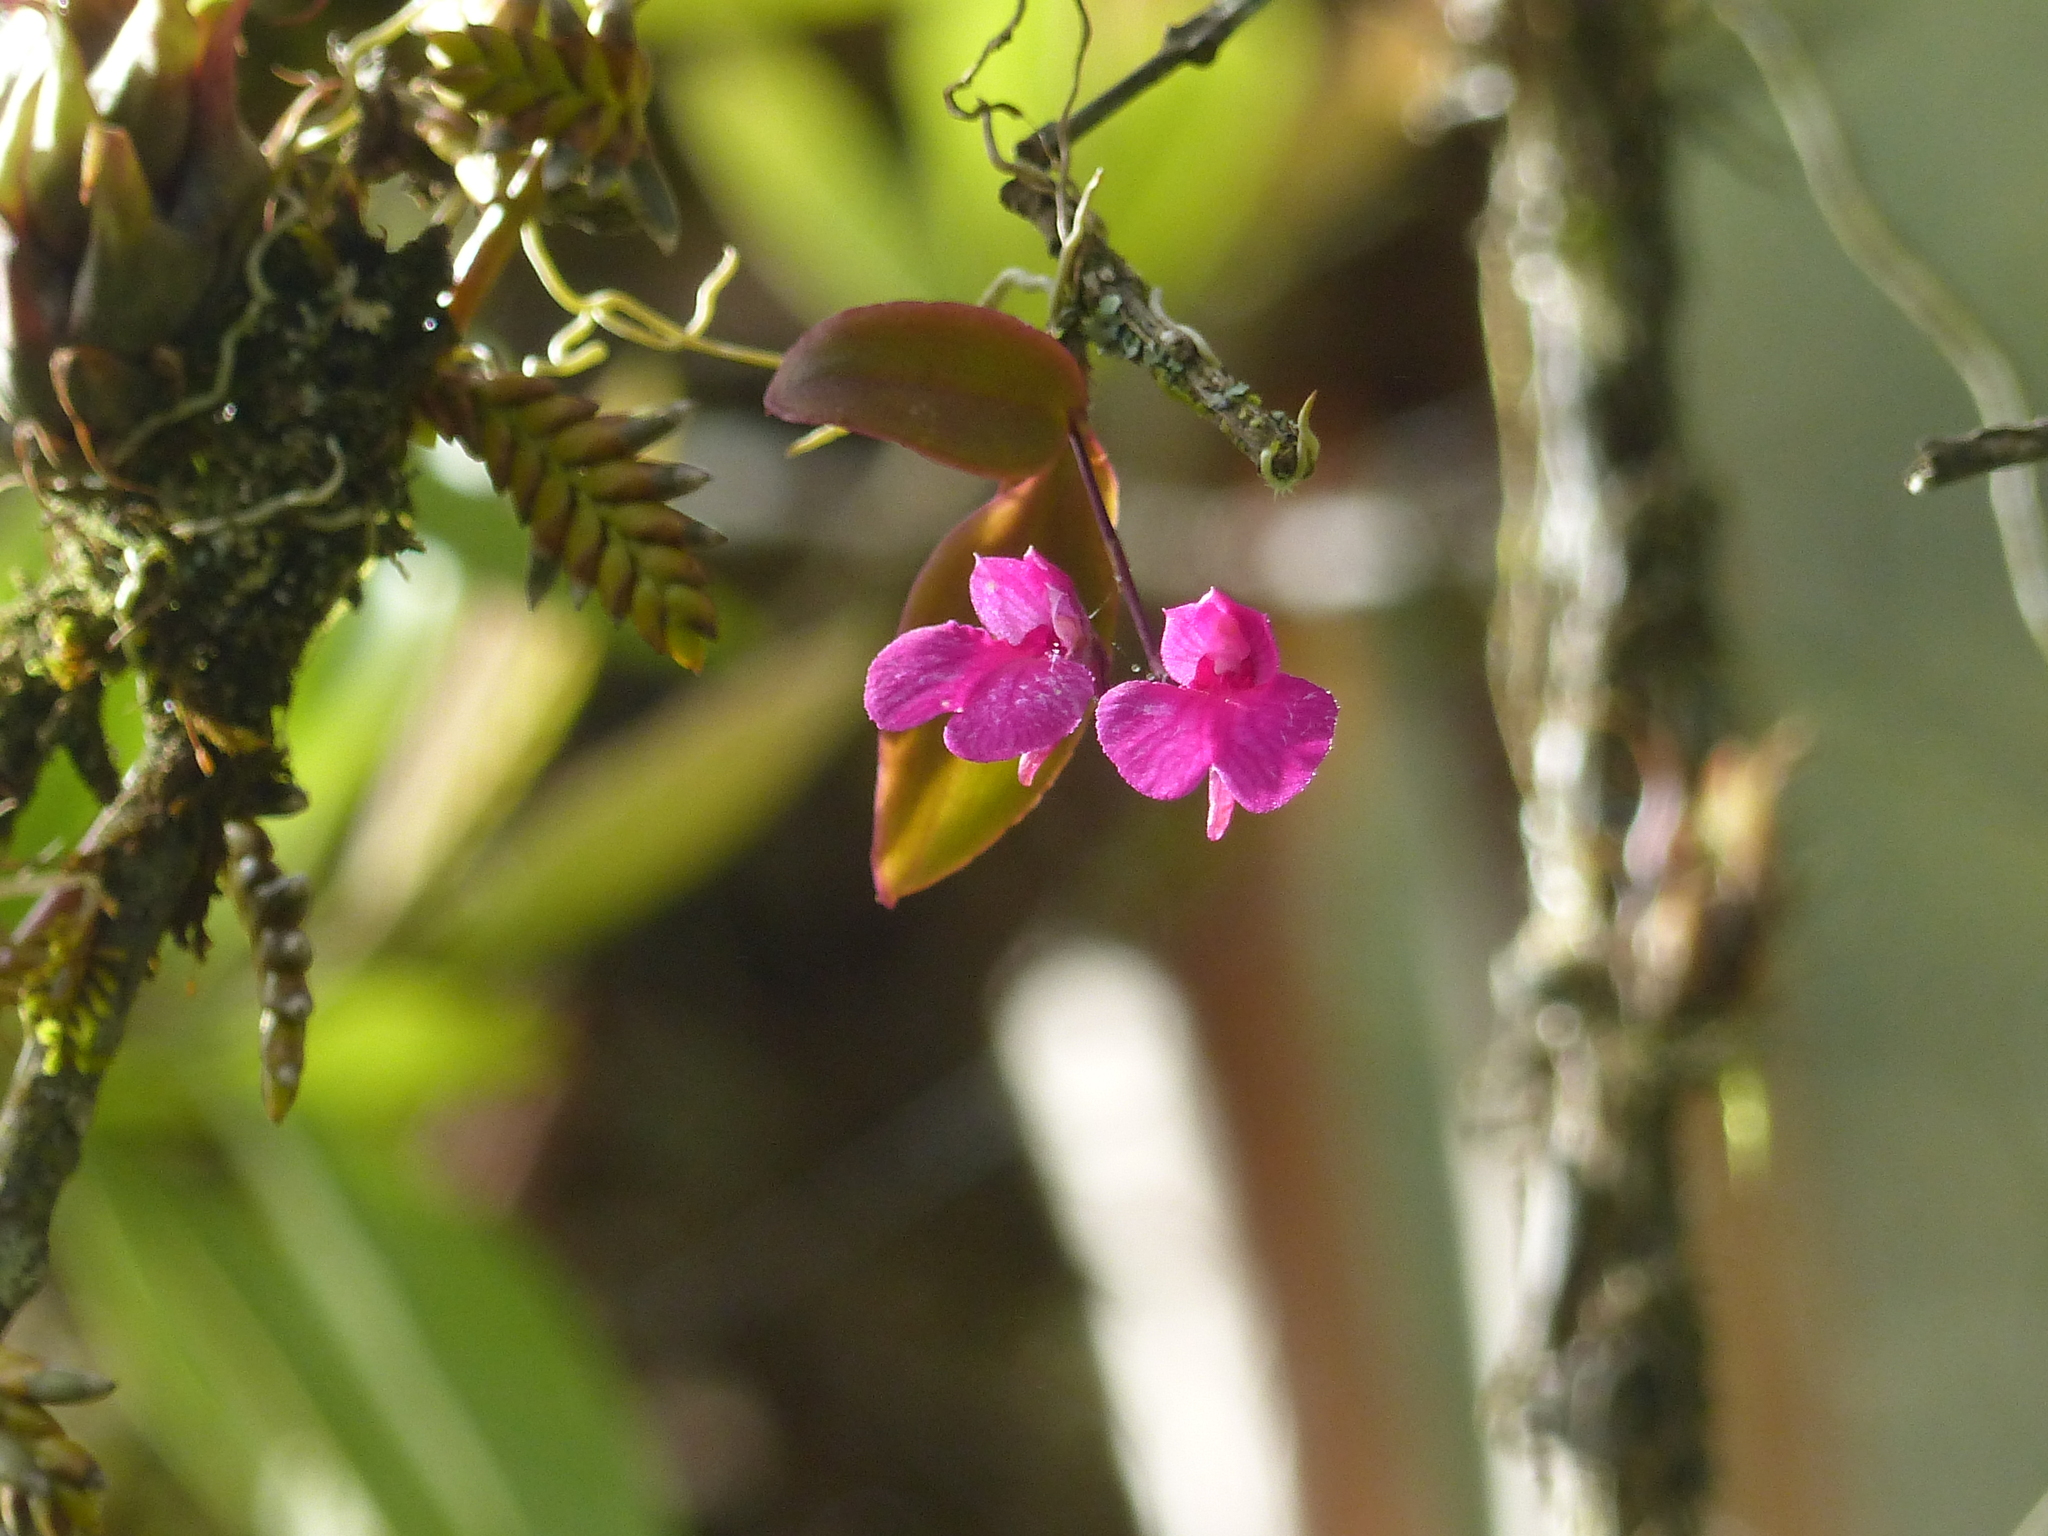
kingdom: Plantae
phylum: Tracheophyta
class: Liliopsida
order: Asparagales
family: Orchidaceae
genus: Comparettia
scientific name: Comparettia falcata
